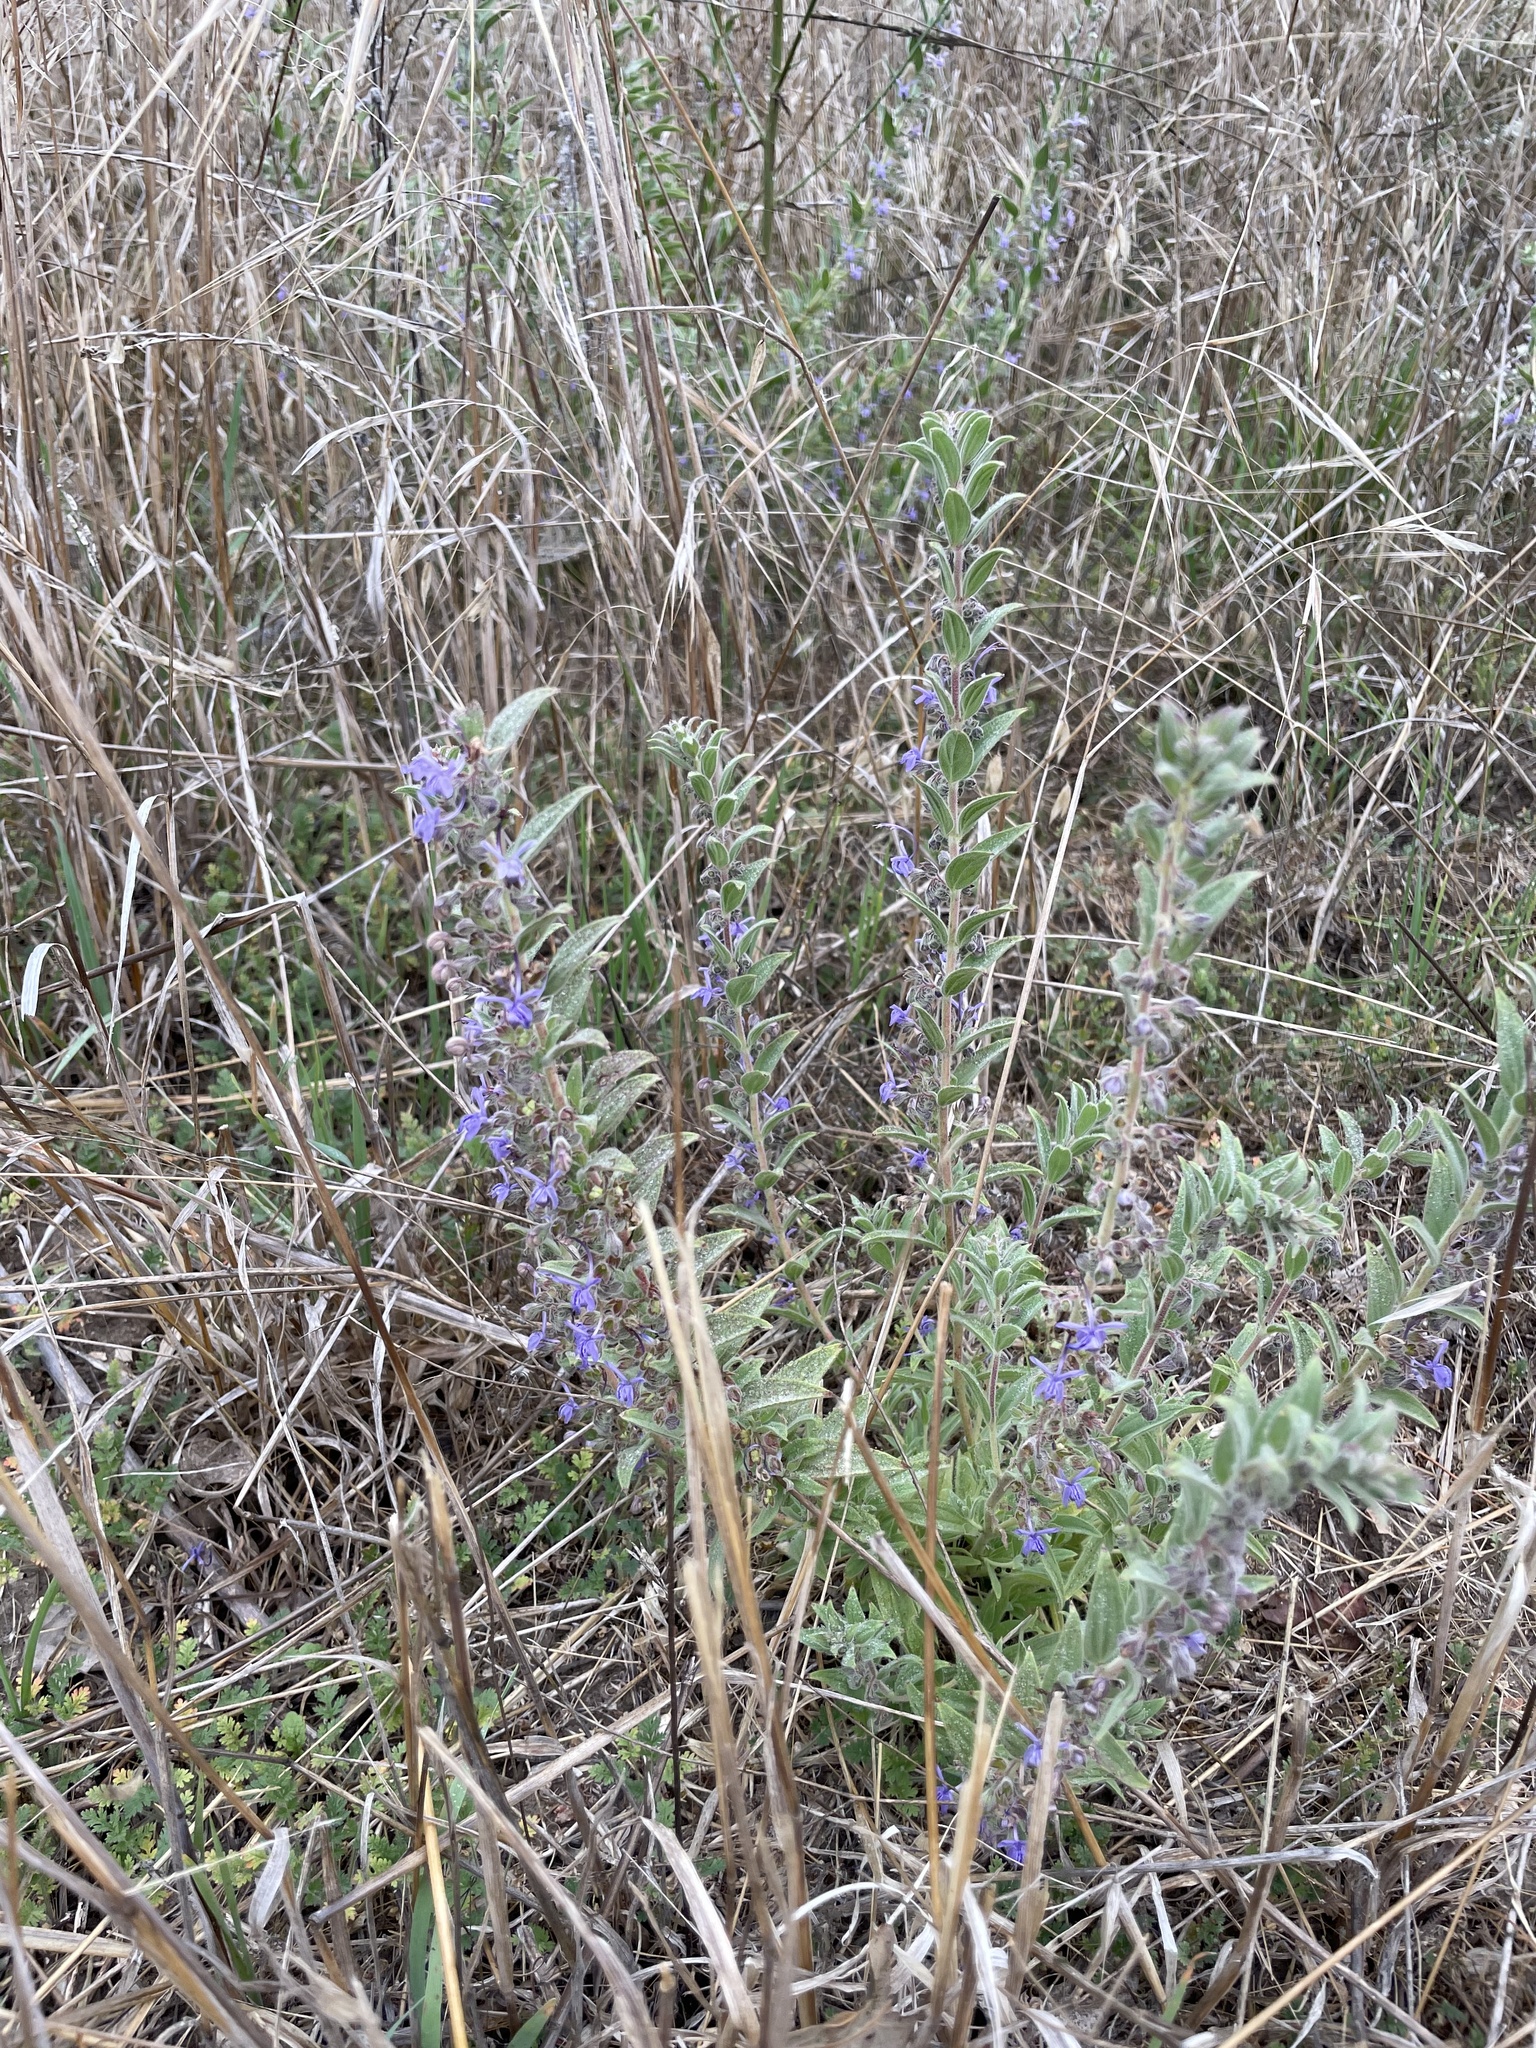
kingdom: Plantae
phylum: Tracheophyta
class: Magnoliopsida
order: Lamiales
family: Lamiaceae
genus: Trichostema
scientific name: Trichostema lanceolatum
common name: Vinegar-weed
